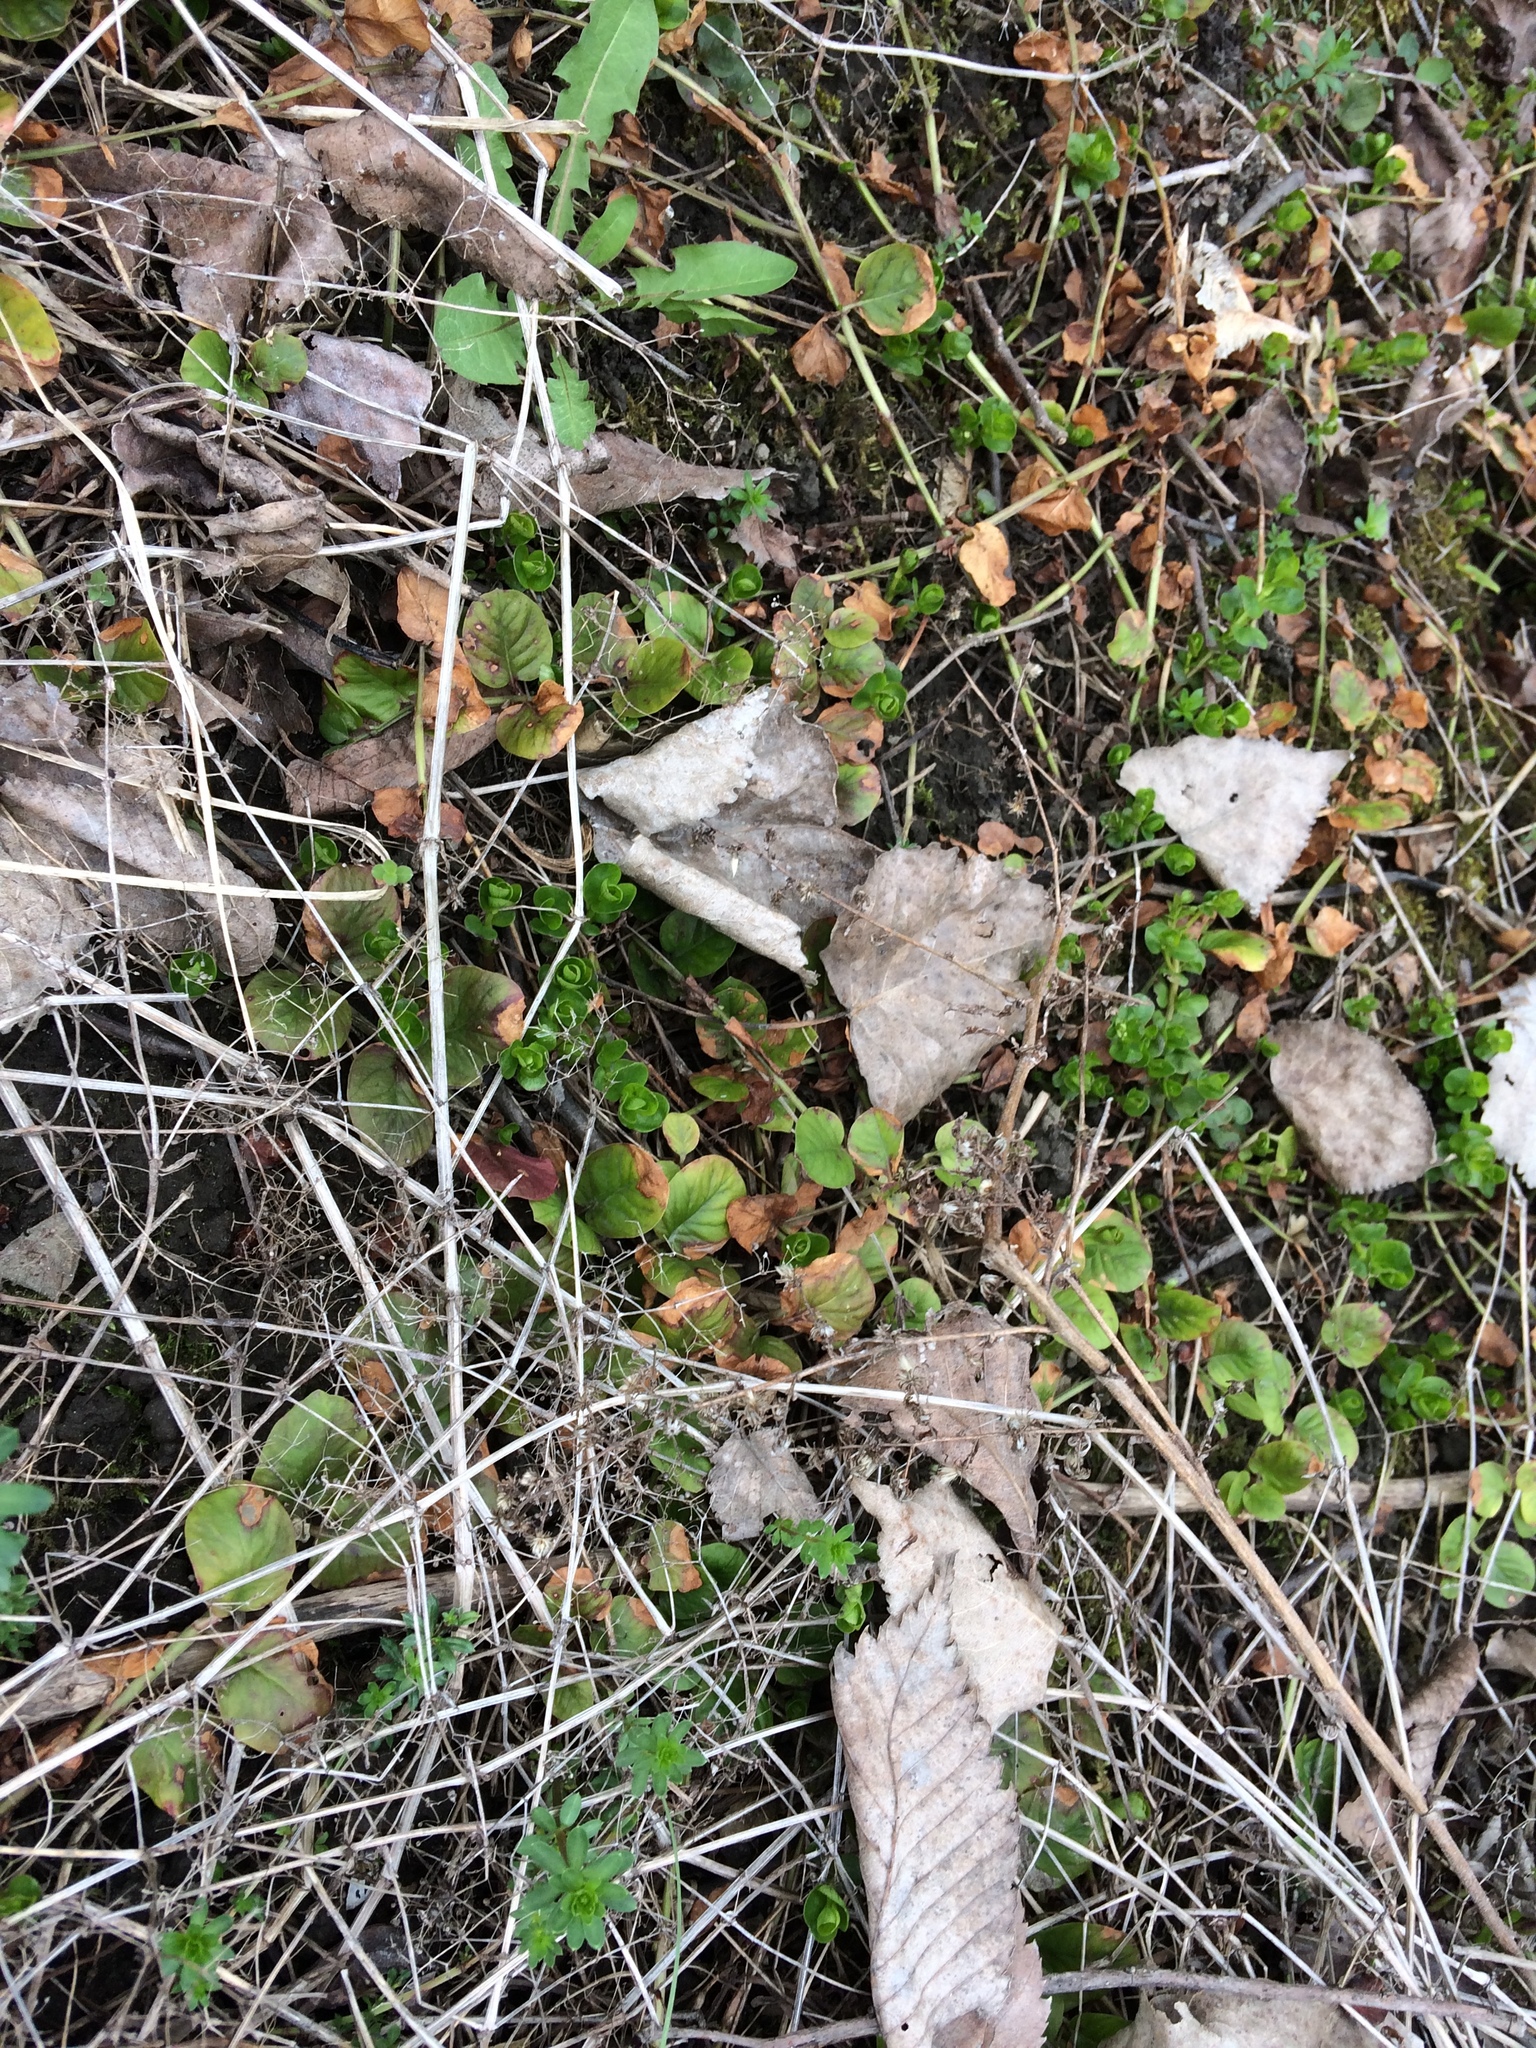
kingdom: Plantae
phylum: Tracheophyta
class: Magnoliopsida
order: Ericales
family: Primulaceae
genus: Lysimachia
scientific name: Lysimachia nummularia
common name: Moneywort
